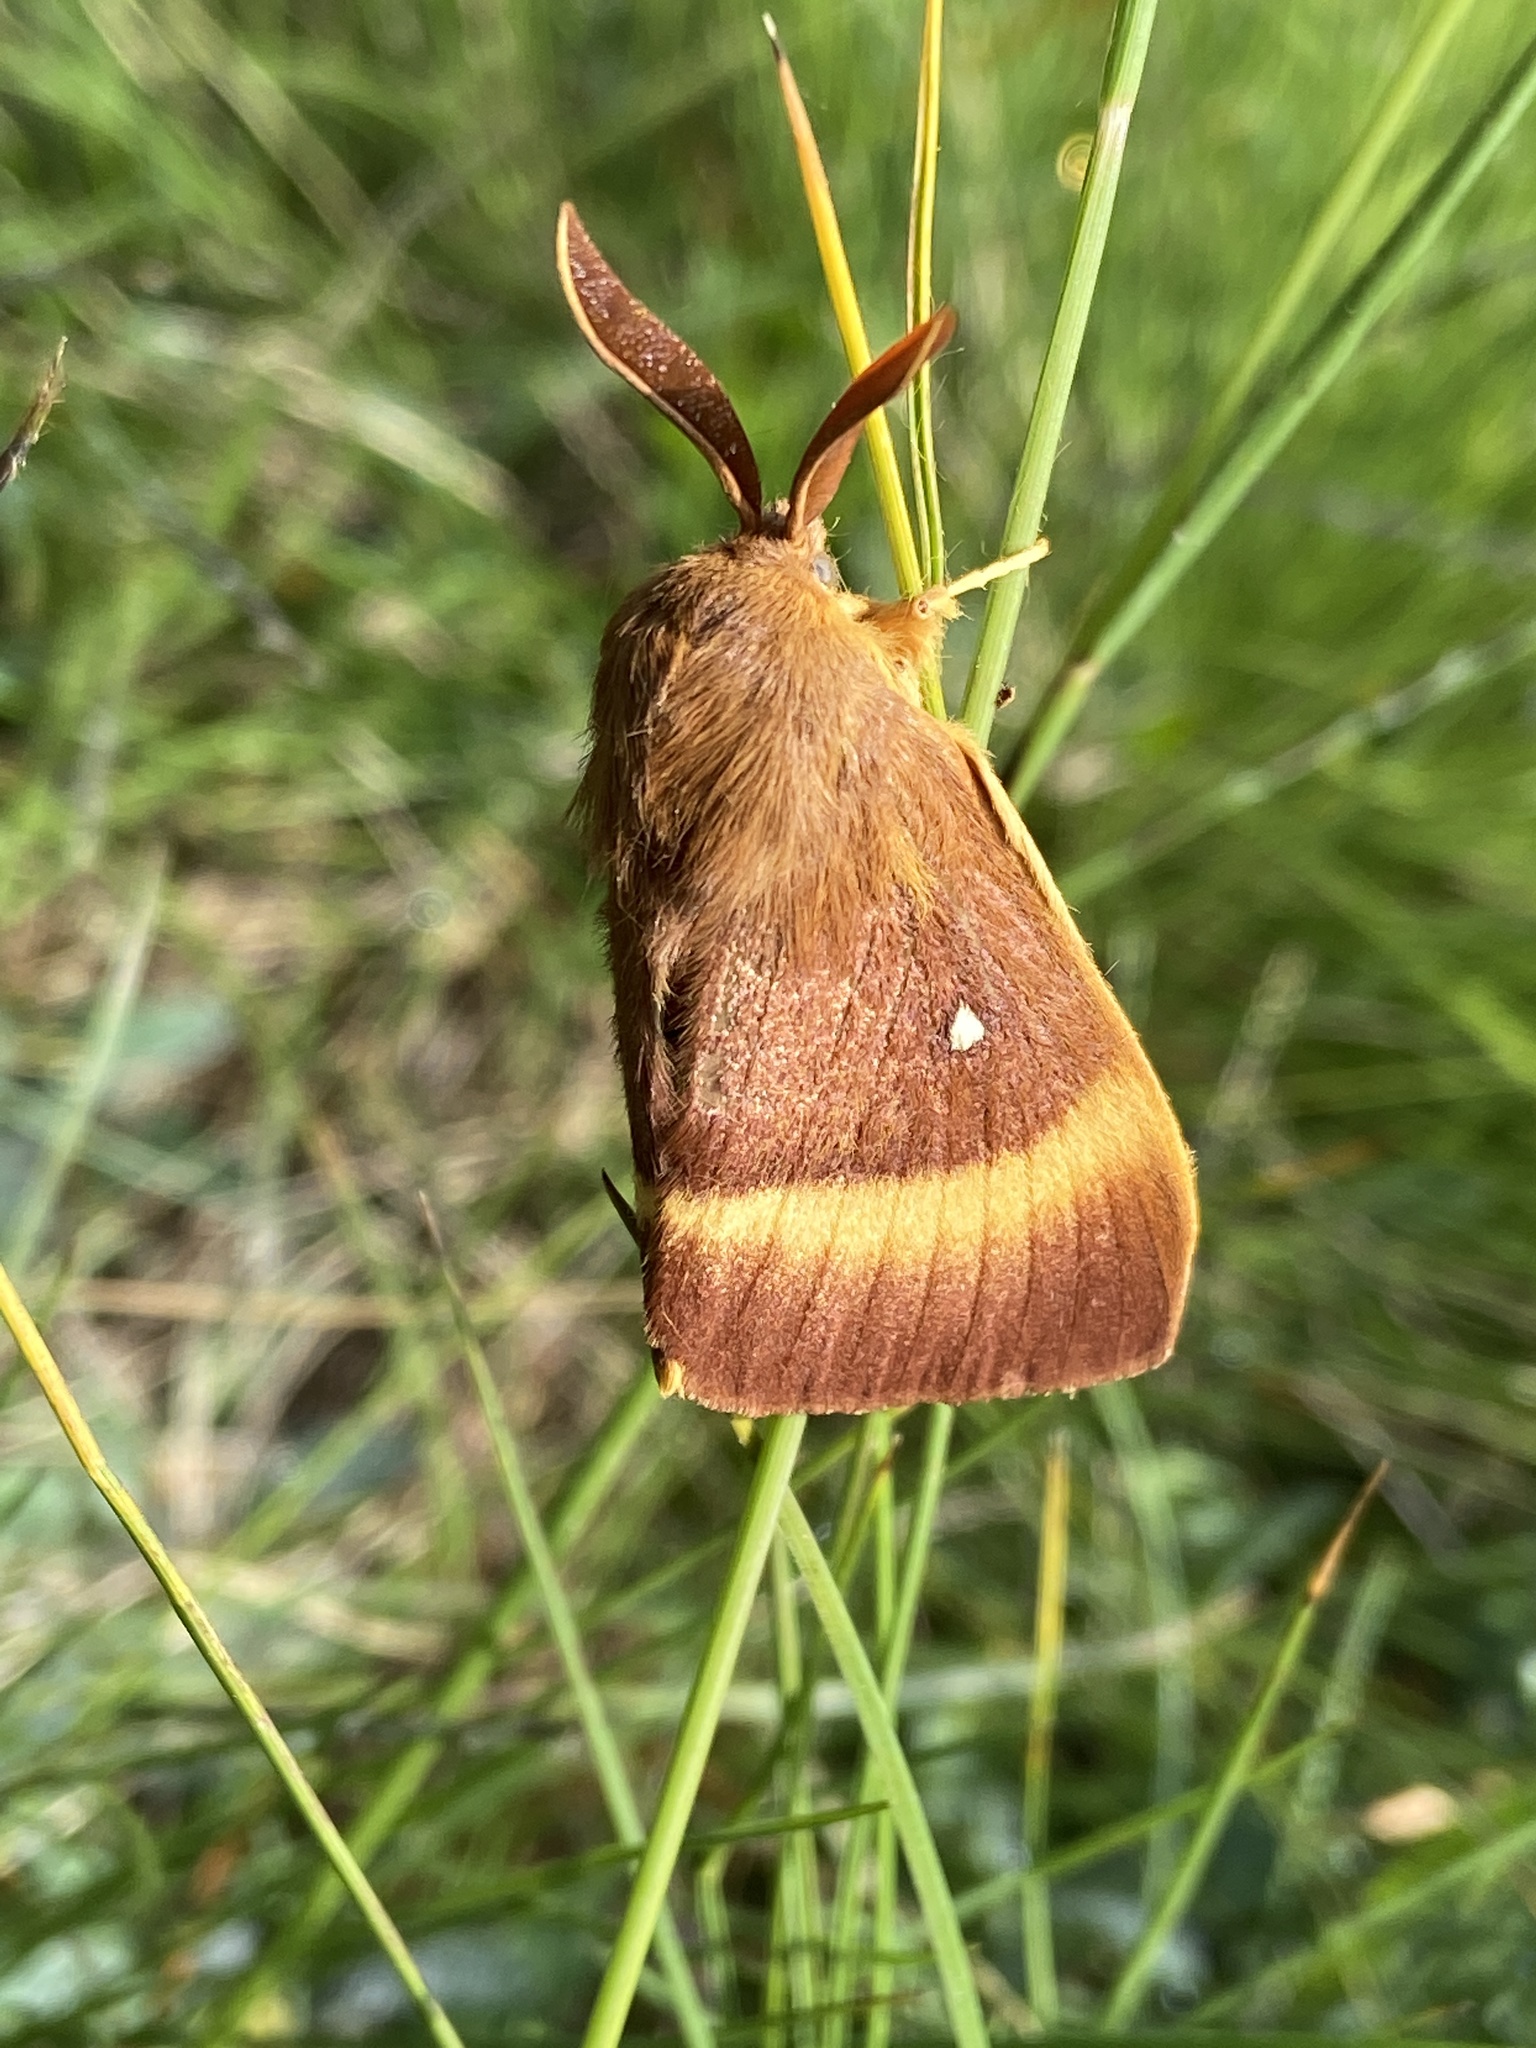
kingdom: Animalia
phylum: Arthropoda
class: Insecta
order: Lepidoptera
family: Lasiocampidae
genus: Lasiocampa
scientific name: Lasiocampa quercus
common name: Oak eggar
